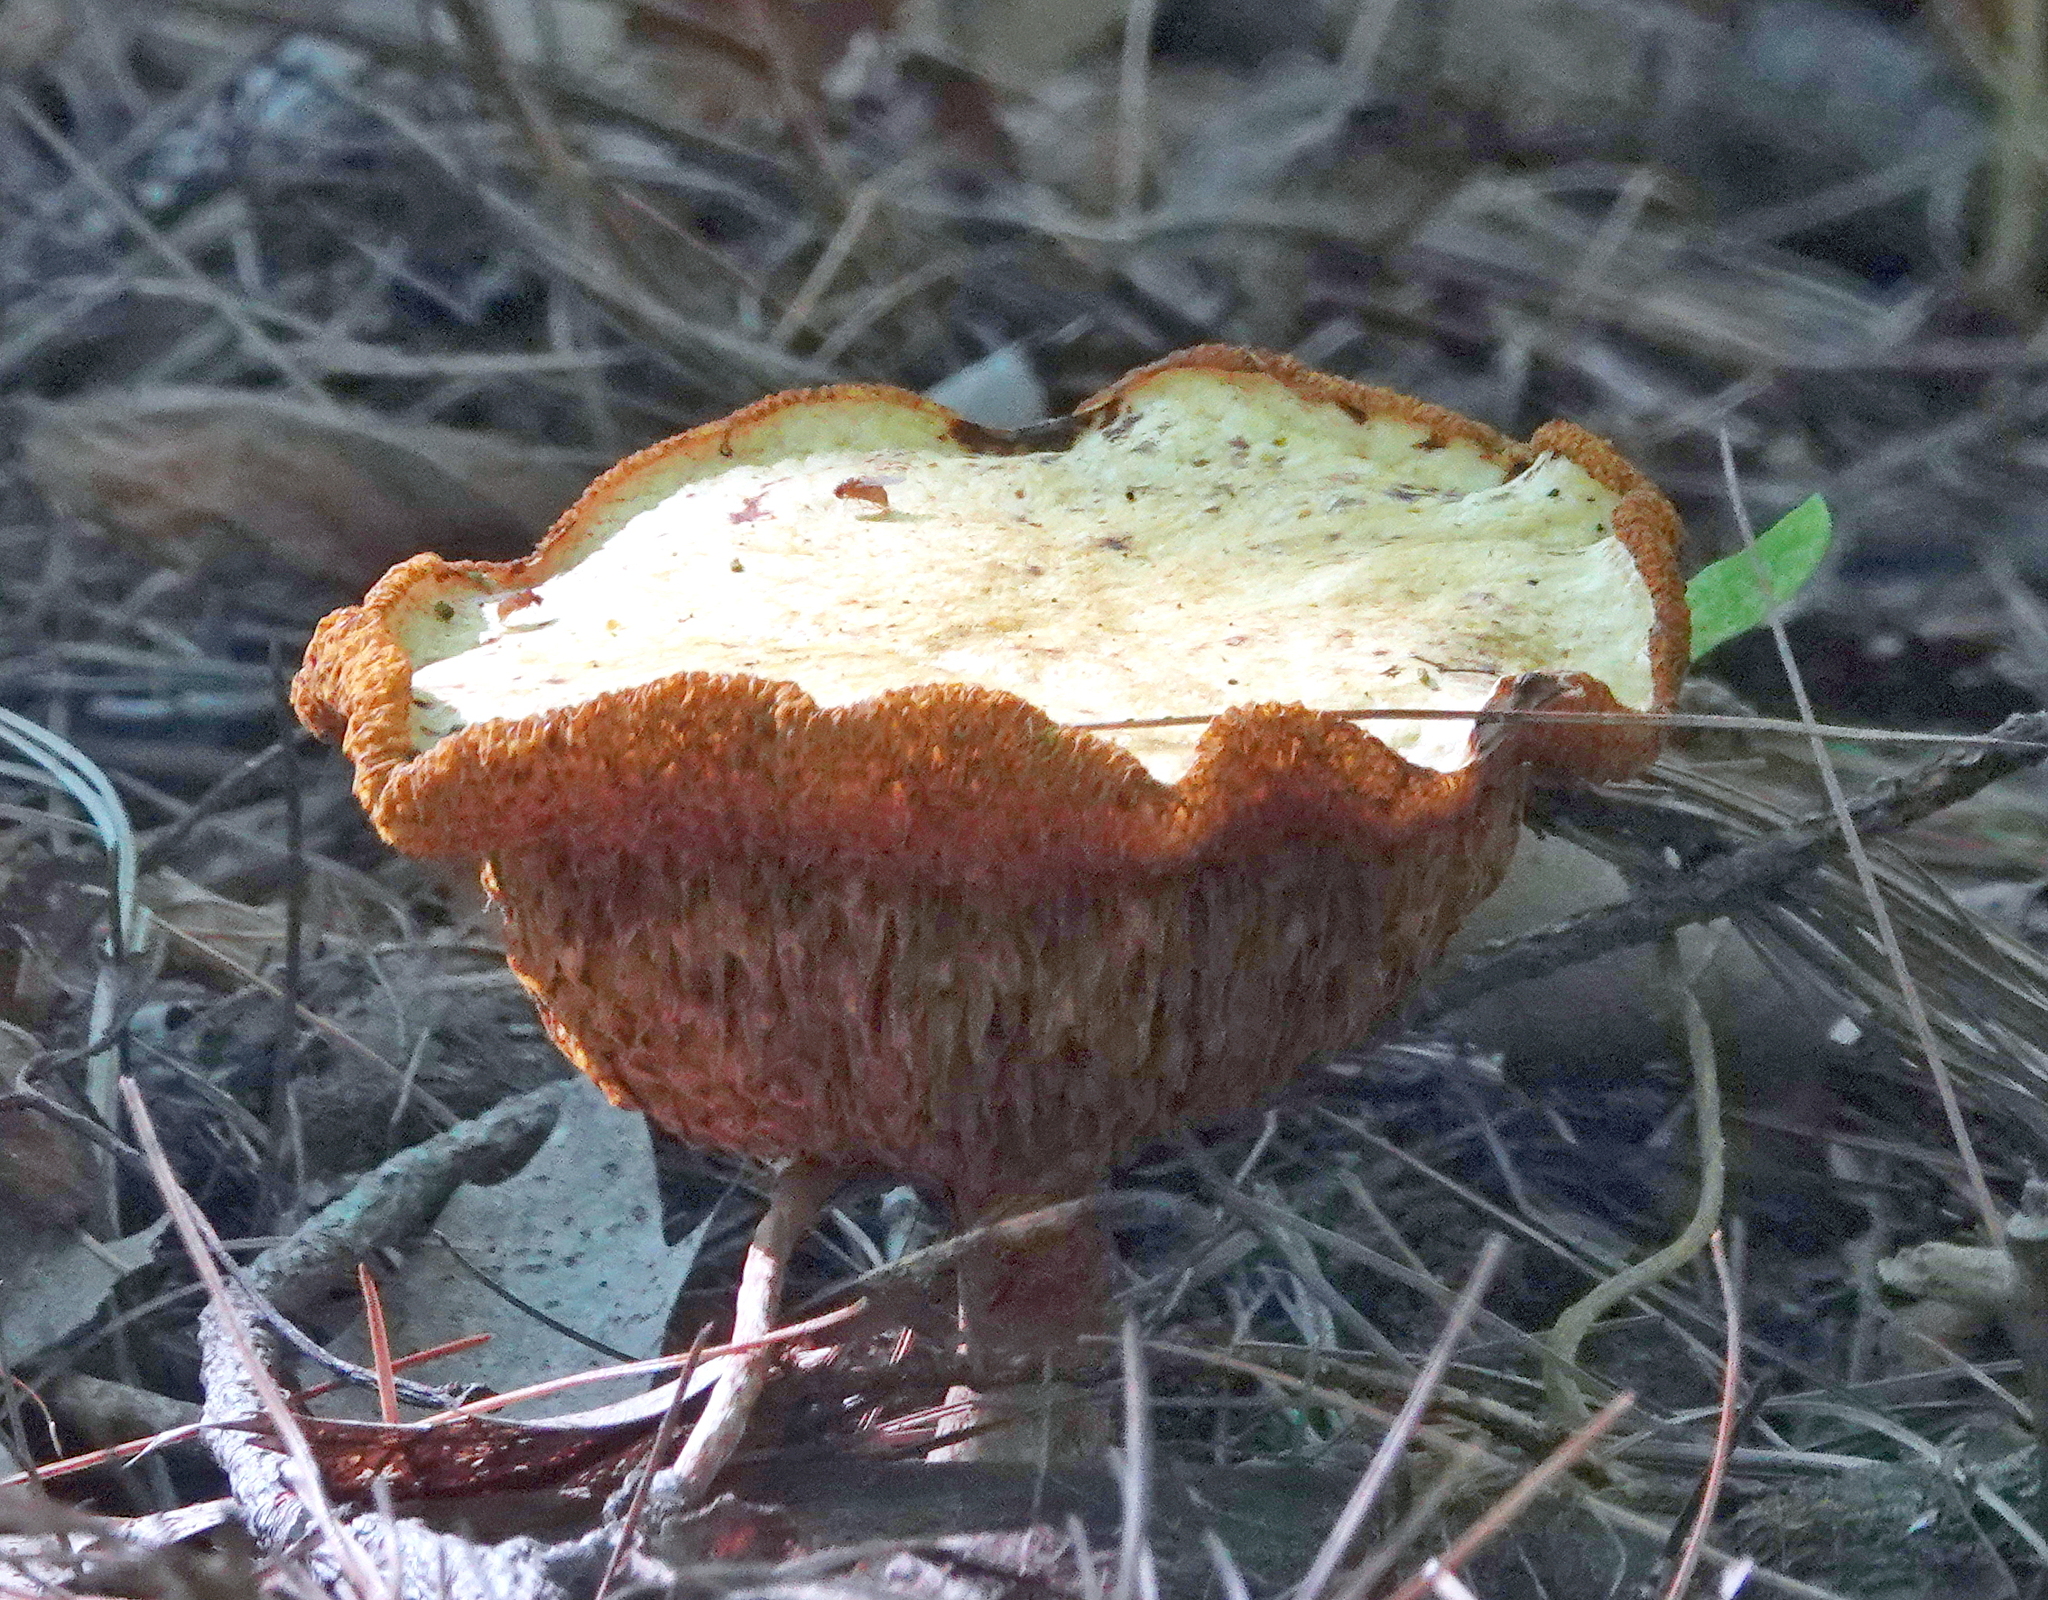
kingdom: Fungi
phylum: Basidiomycota
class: Agaricomycetes
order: Boletales
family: Suillaceae
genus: Suillus
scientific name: Suillus americanus
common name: Chicken fat mushroom
